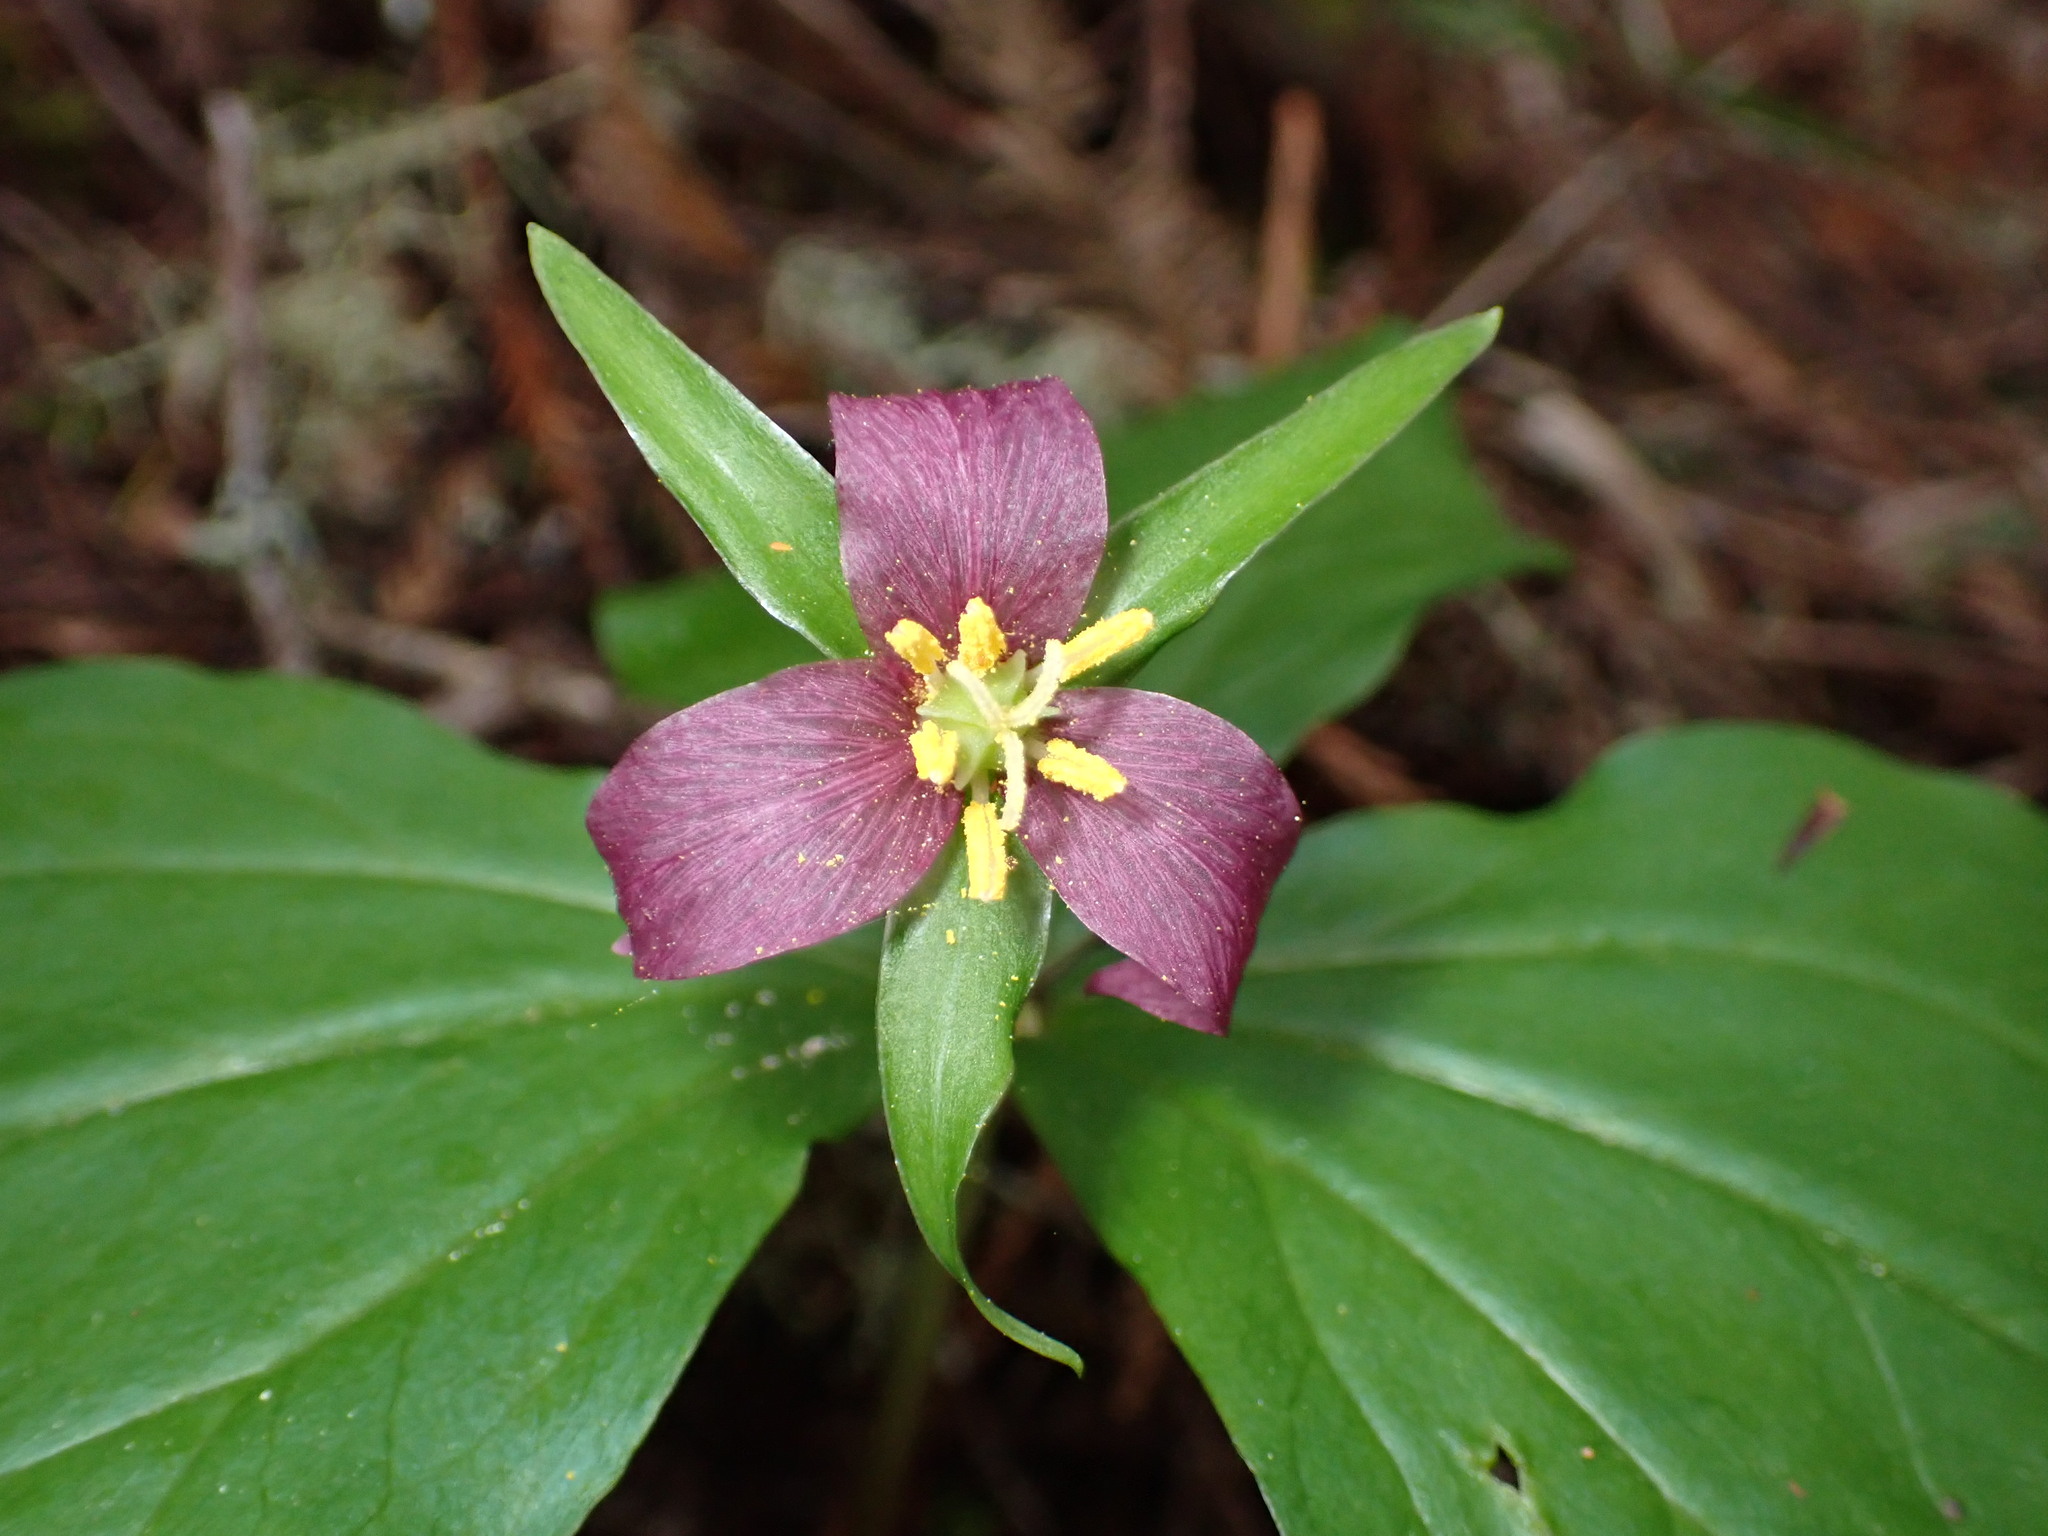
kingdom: Plantae
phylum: Tracheophyta
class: Liliopsida
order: Liliales
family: Melanthiaceae
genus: Trillium
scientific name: Trillium ovatum
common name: Pacific trillium
